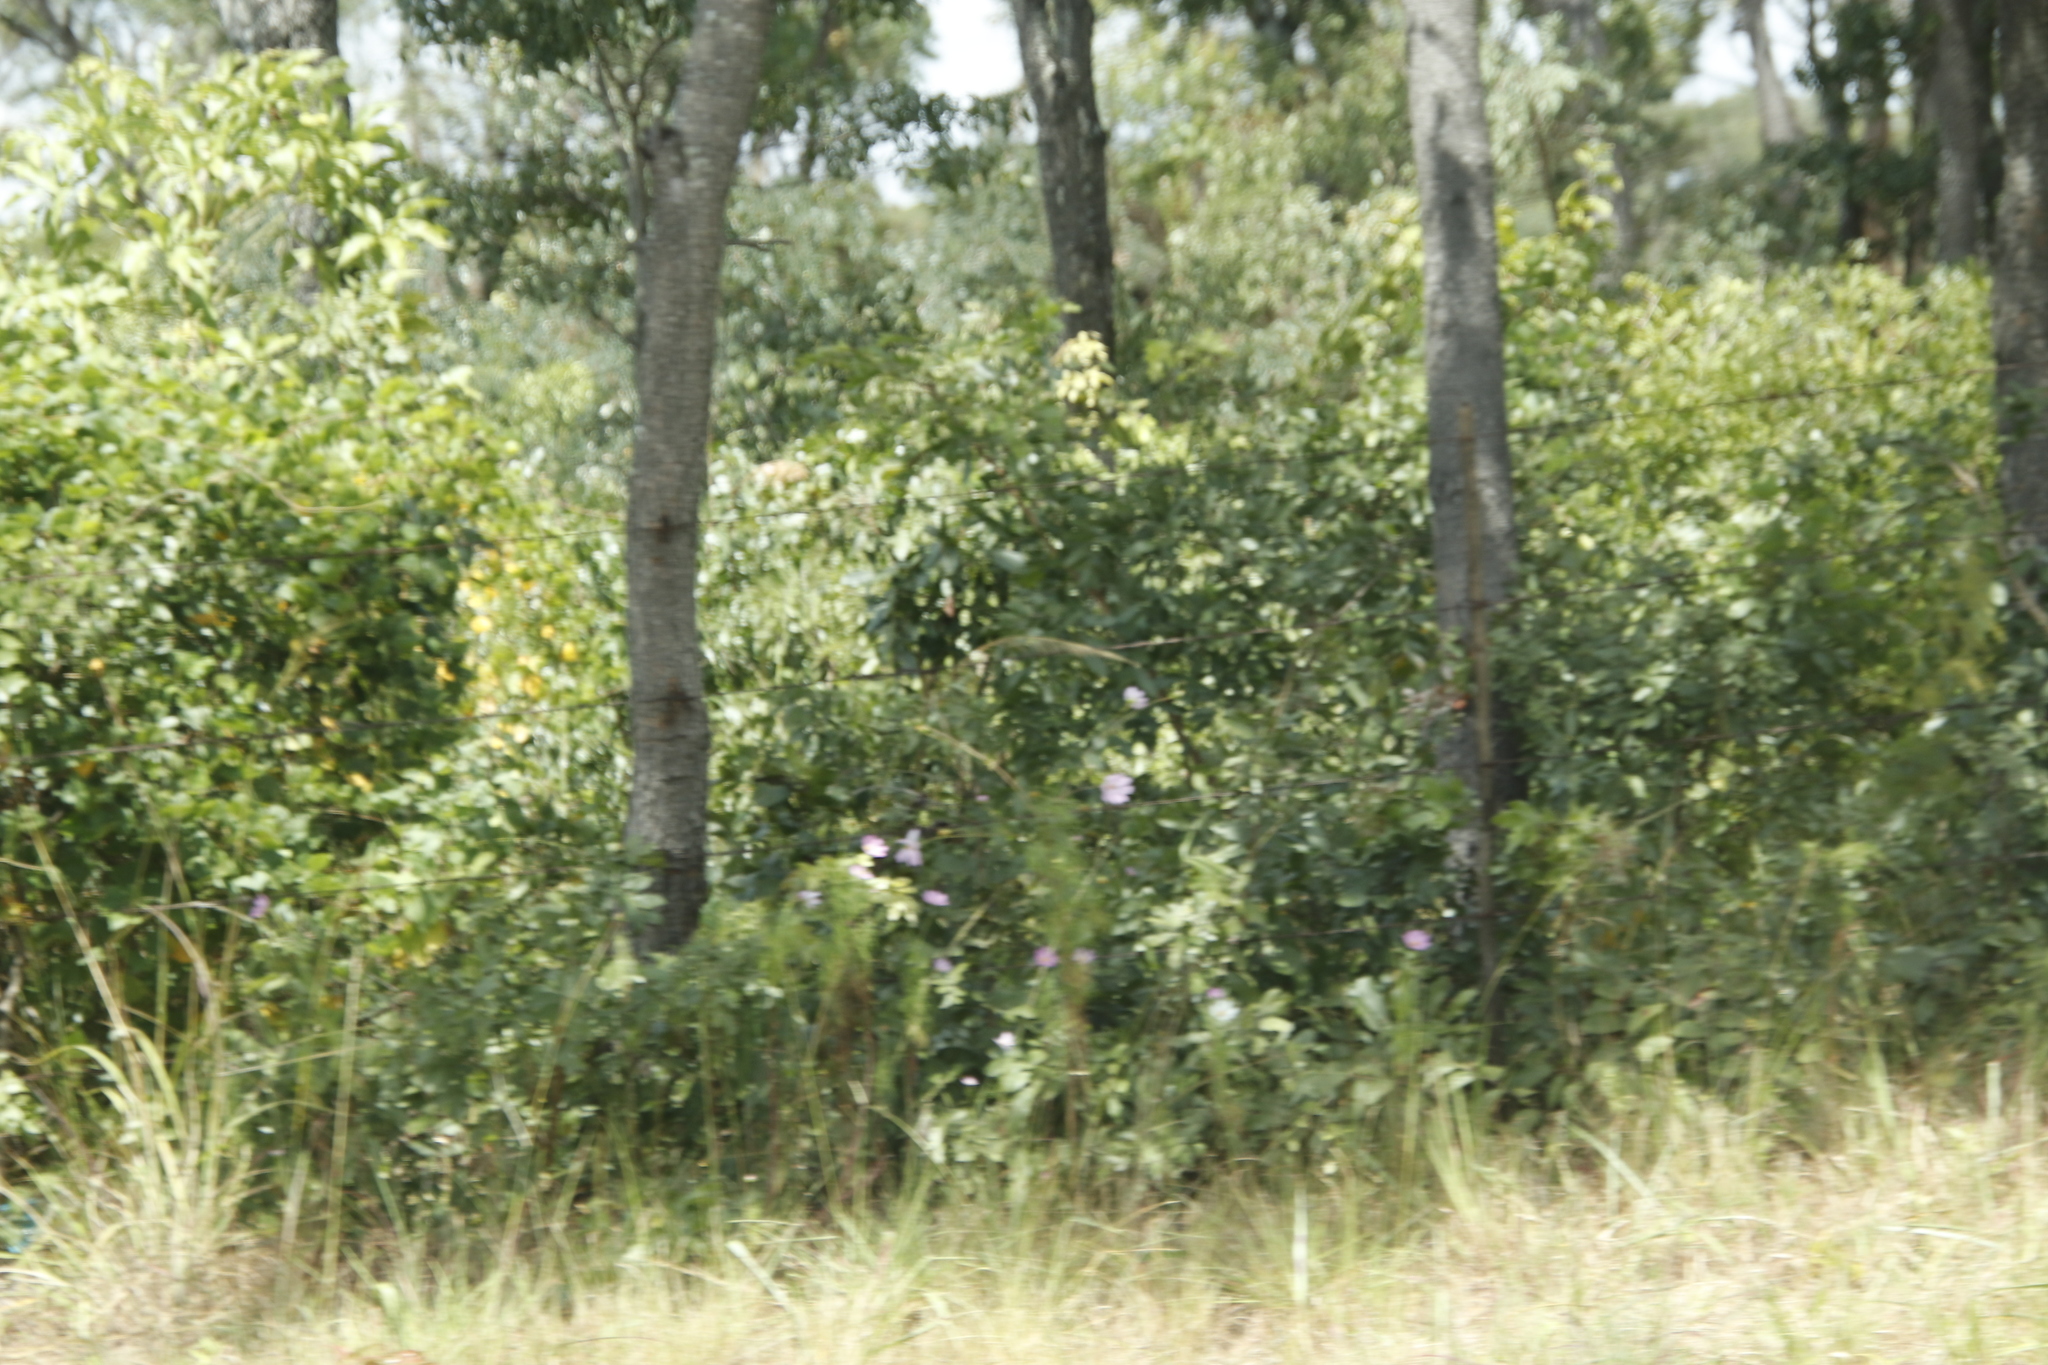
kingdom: Plantae
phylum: Tracheophyta
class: Magnoliopsida
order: Asterales
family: Asteraceae
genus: Cosmos
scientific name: Cosmos bipinnatus
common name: Garden cosmos
